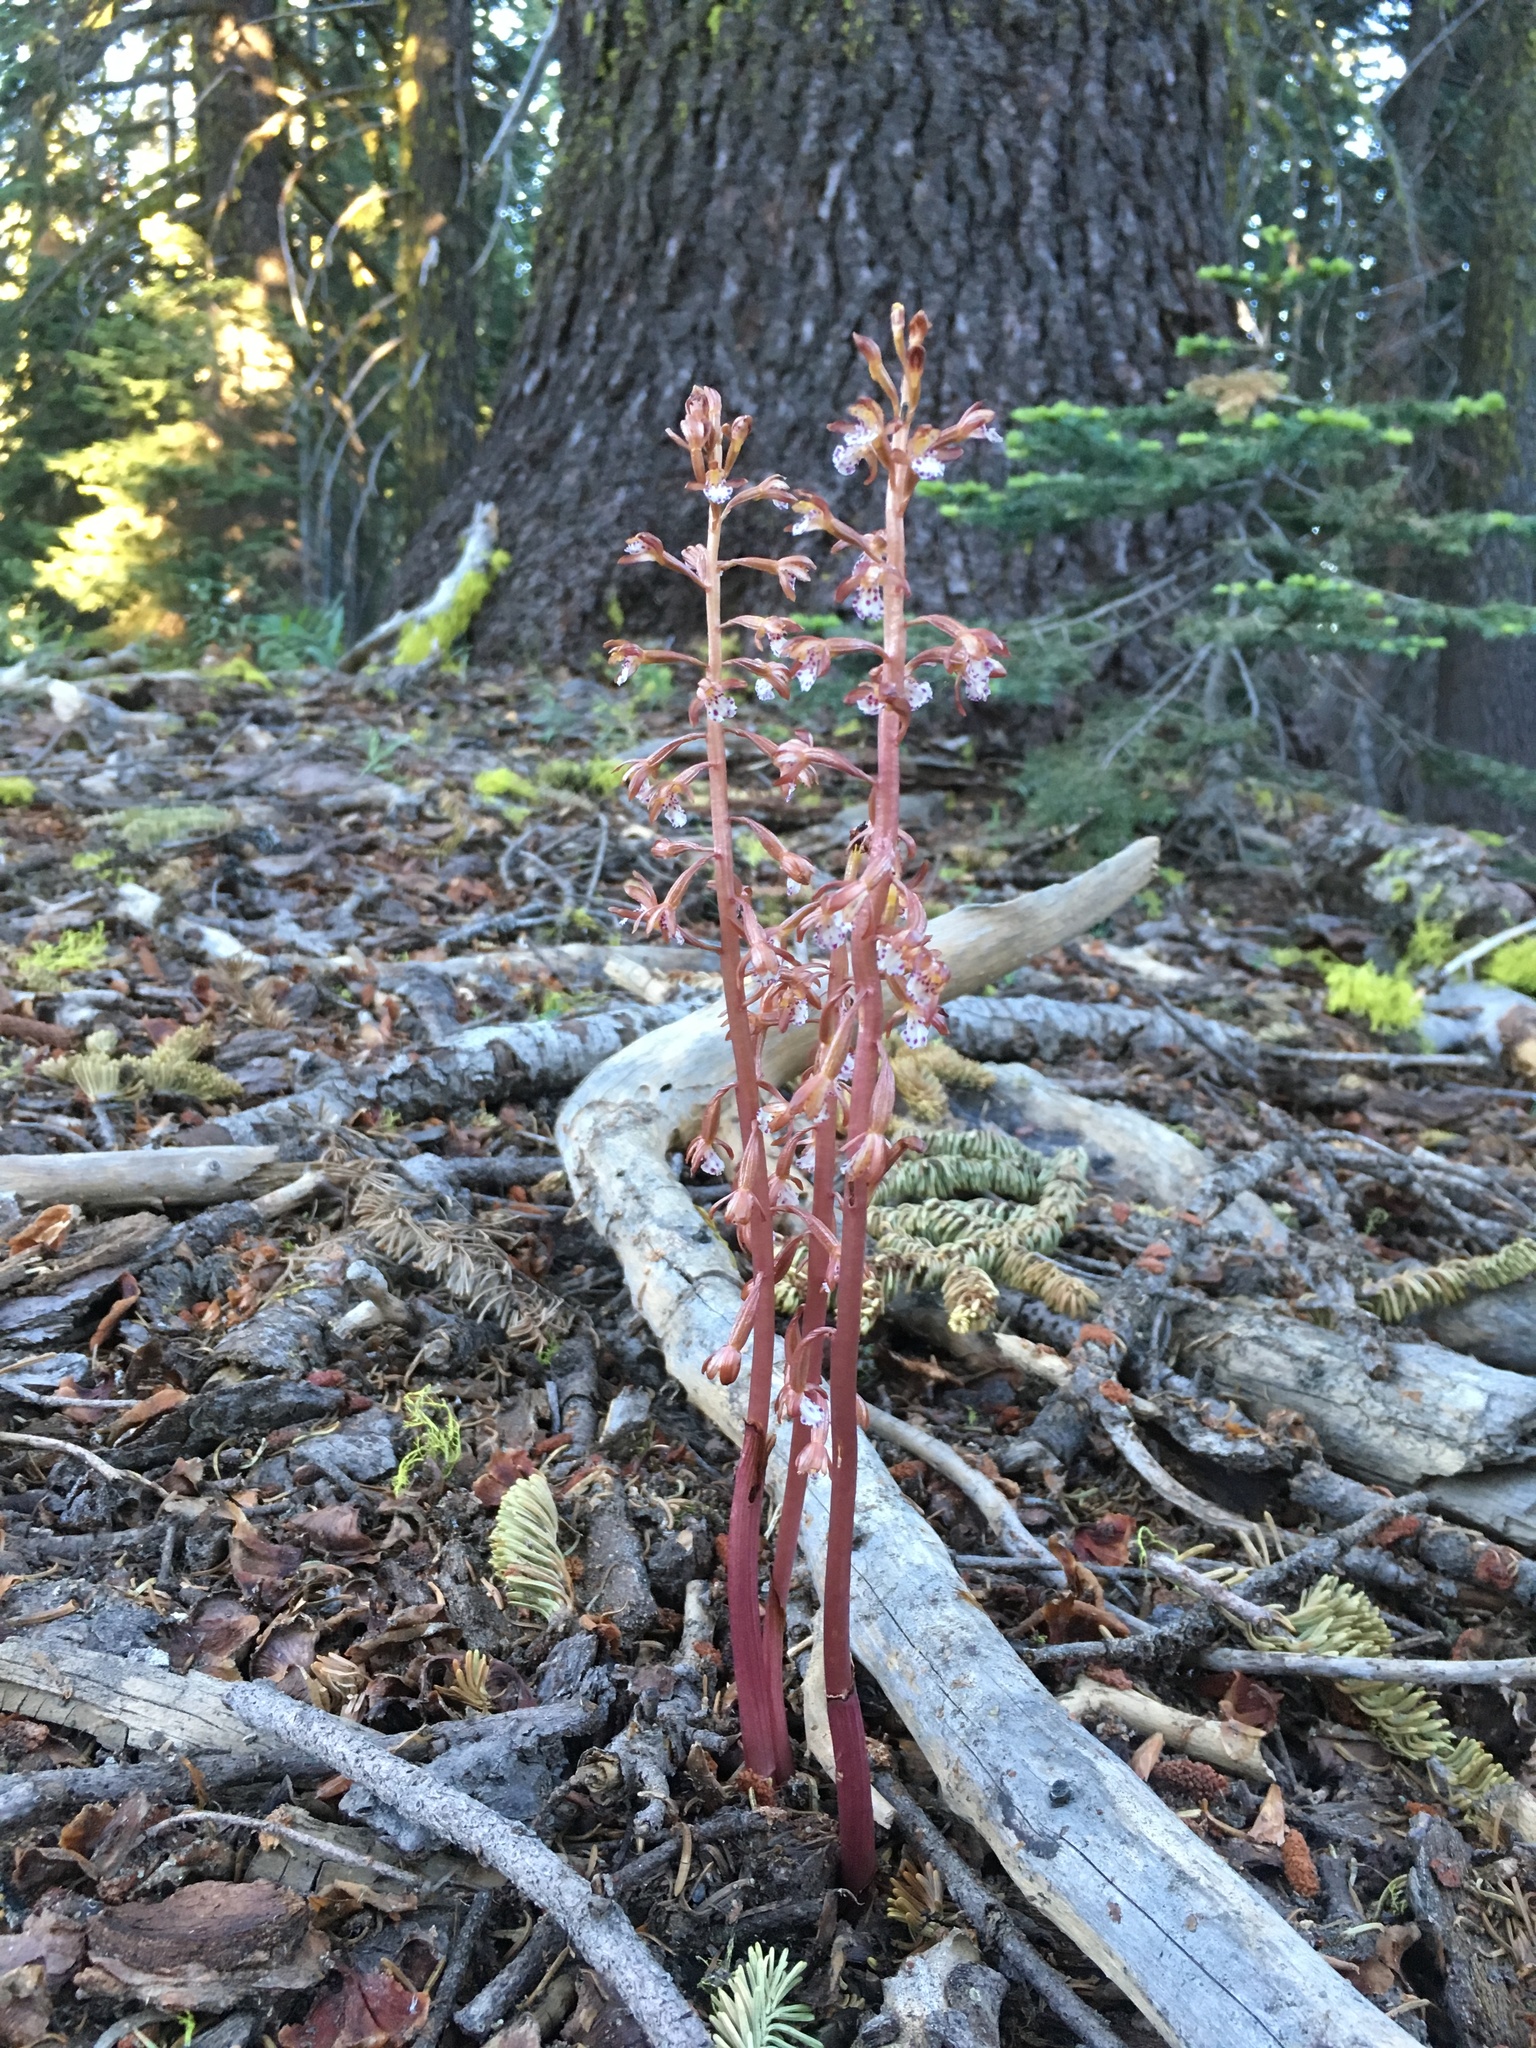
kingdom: Plantae
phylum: Tracheophyta
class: Liliopsida
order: Asparagales
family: Orchidaceae
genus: Corallorhiza
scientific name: Corallorhiza maculata
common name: Spotted coralroot
